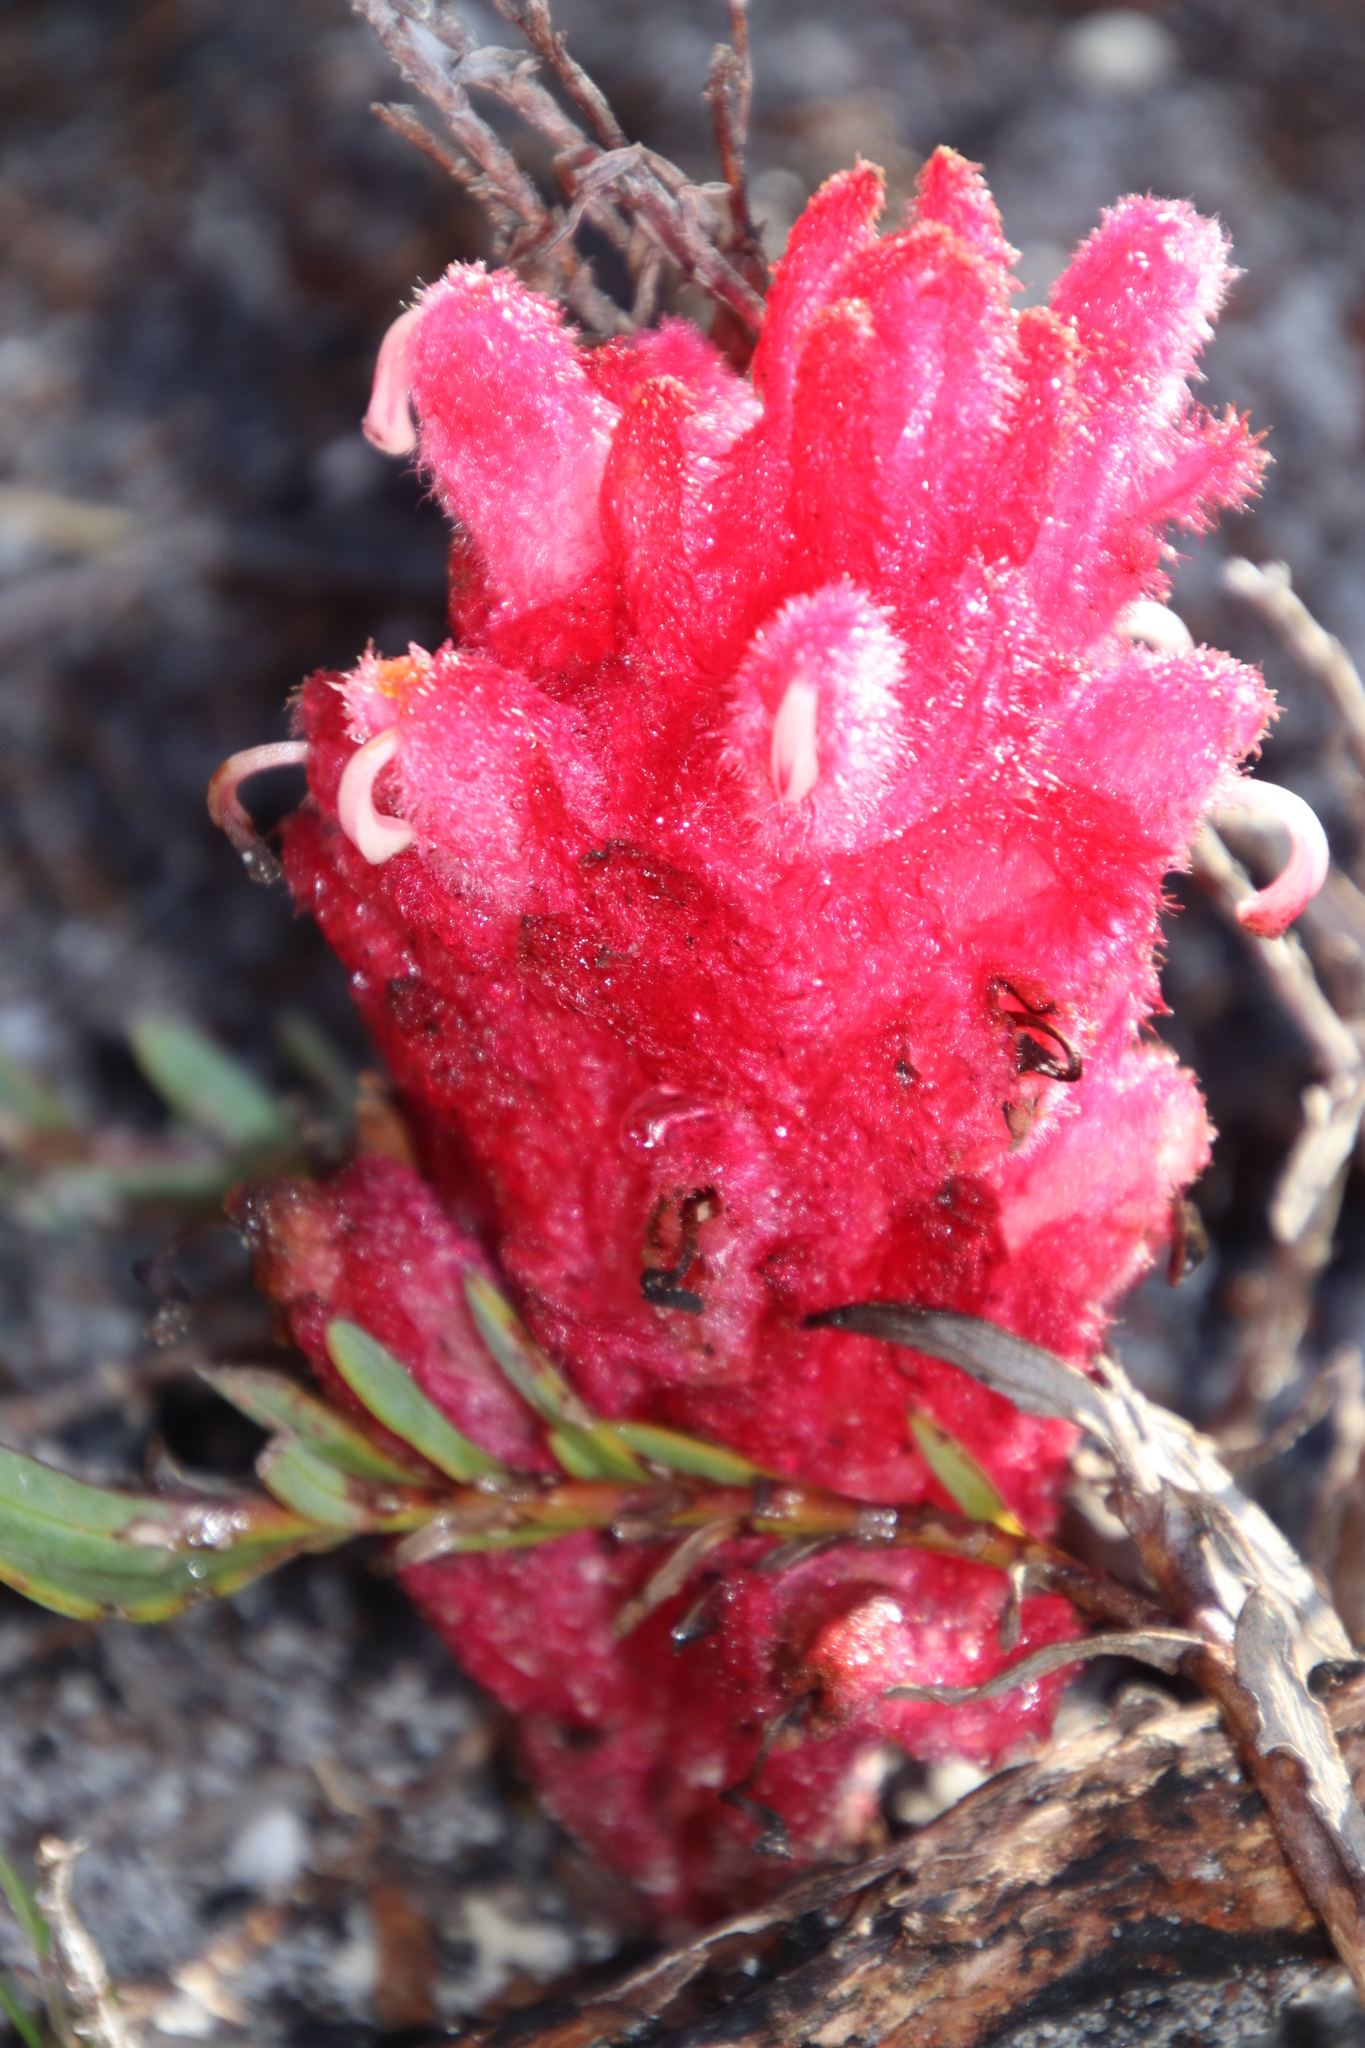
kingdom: Plantae
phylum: Tracheophyta
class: Magnoliopsida
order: Lamiales
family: Orobanchaceae
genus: Hyobanche
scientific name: Hyobanche sanguinea
